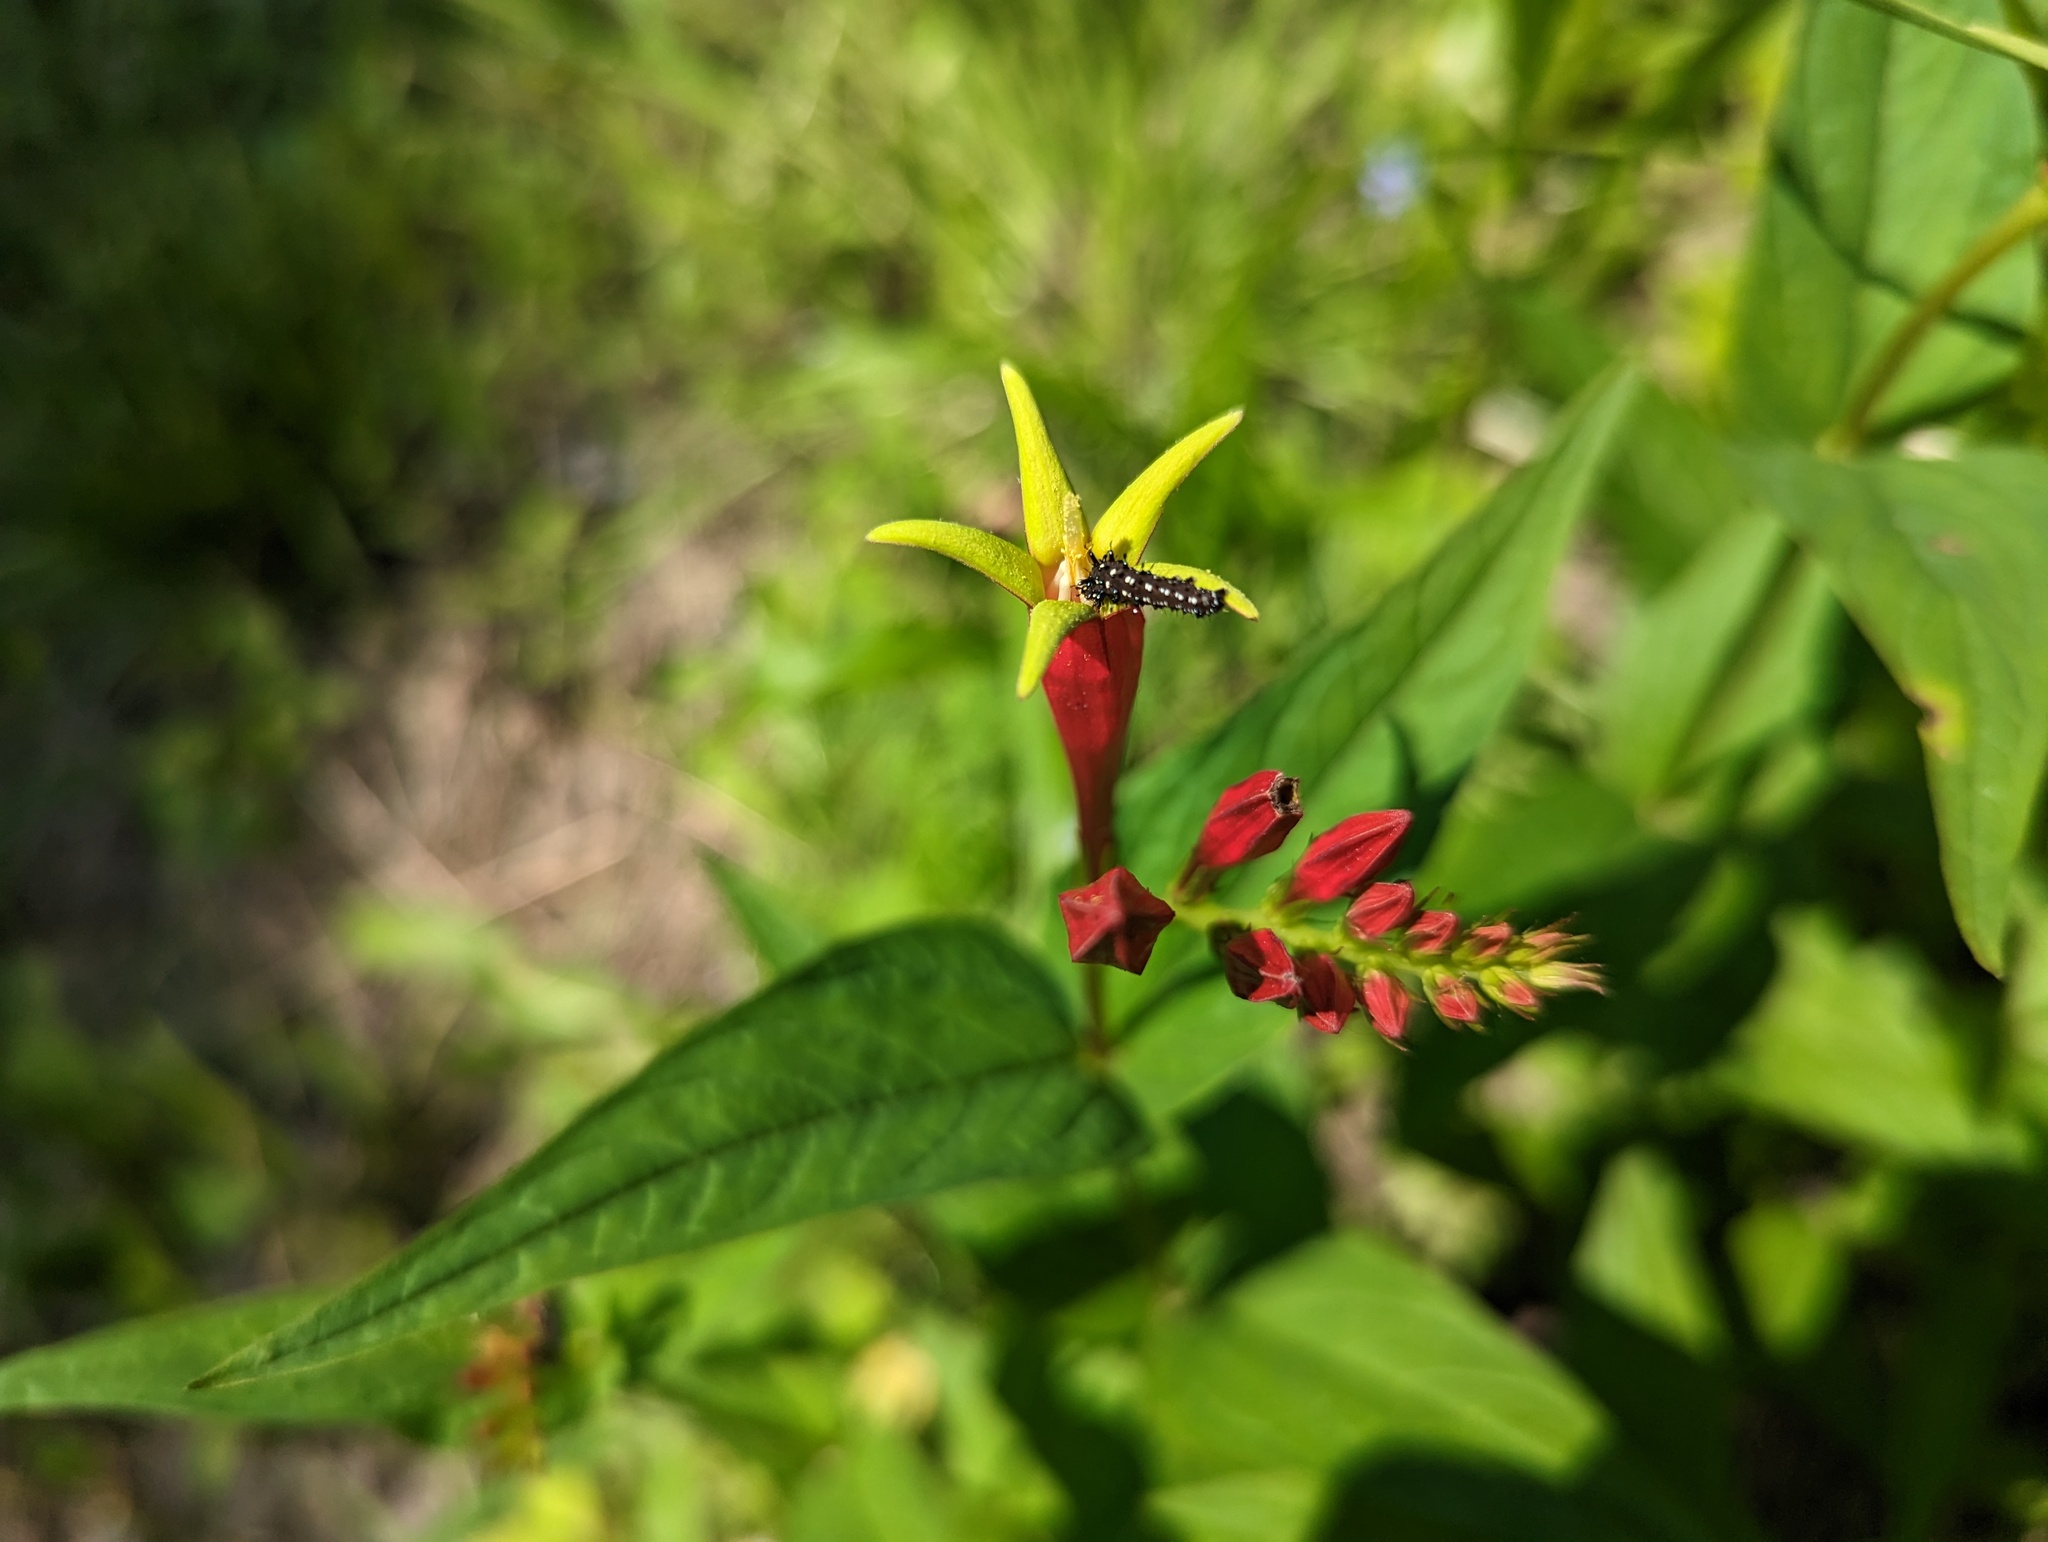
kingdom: Plantae
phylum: Tracheophyta
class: Magnoliopsida
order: Gentianales
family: Loganiaceae
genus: Spigelia
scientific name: Spigelia marilandica
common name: Indian-pink
